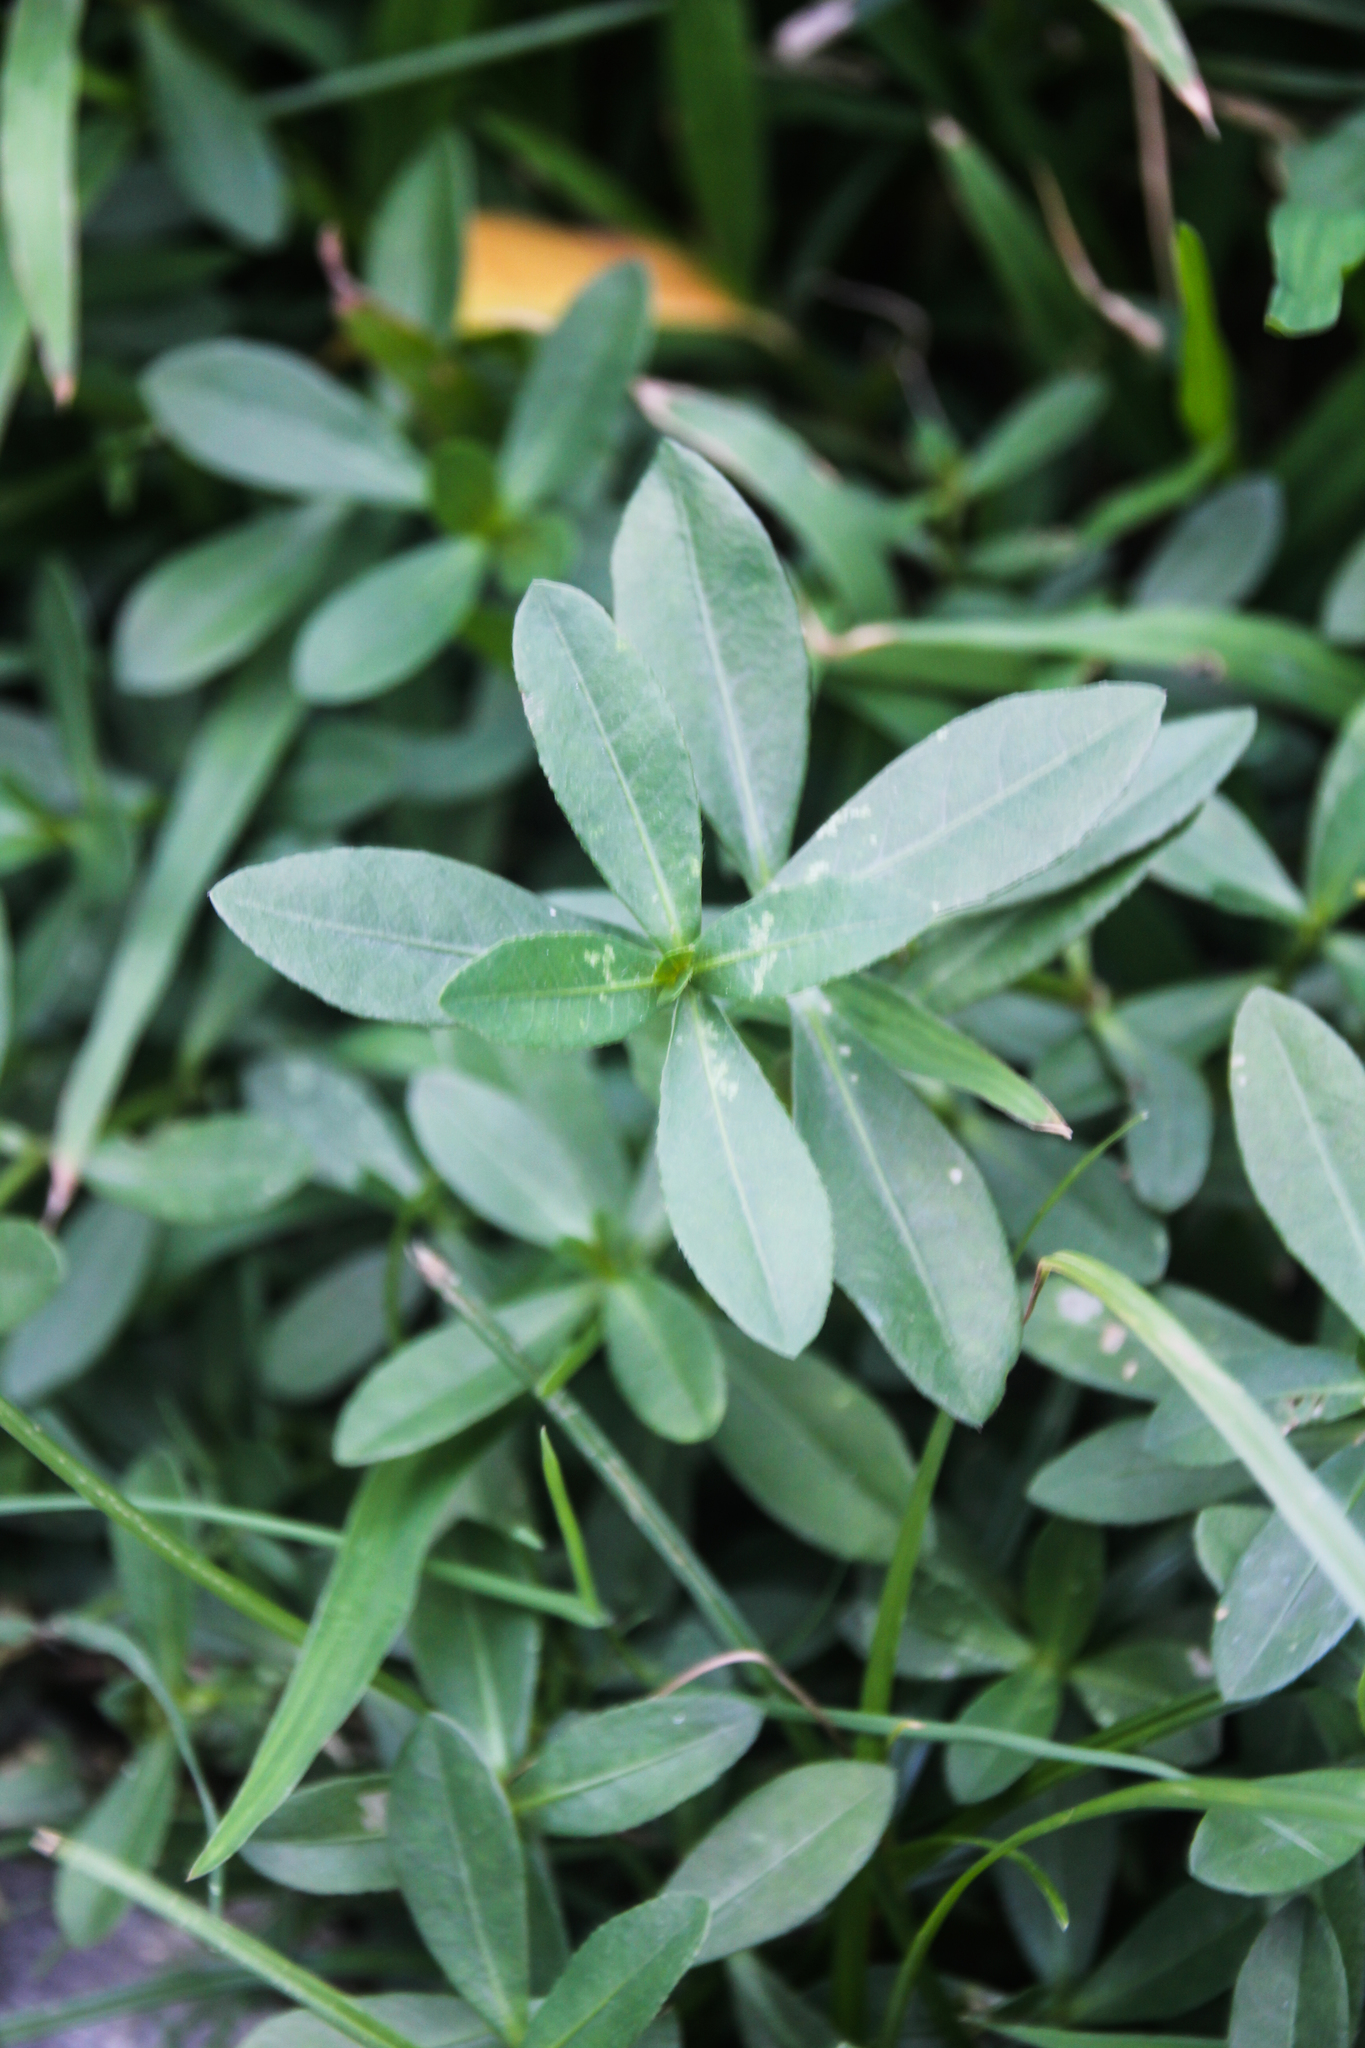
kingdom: Plantae
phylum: Tracheophyta
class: Magnoliopsida
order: Caryophyllales
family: Amaranthaceae
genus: Alternanthera
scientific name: Alternanthera philoxeroides
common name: Alligatorweed
